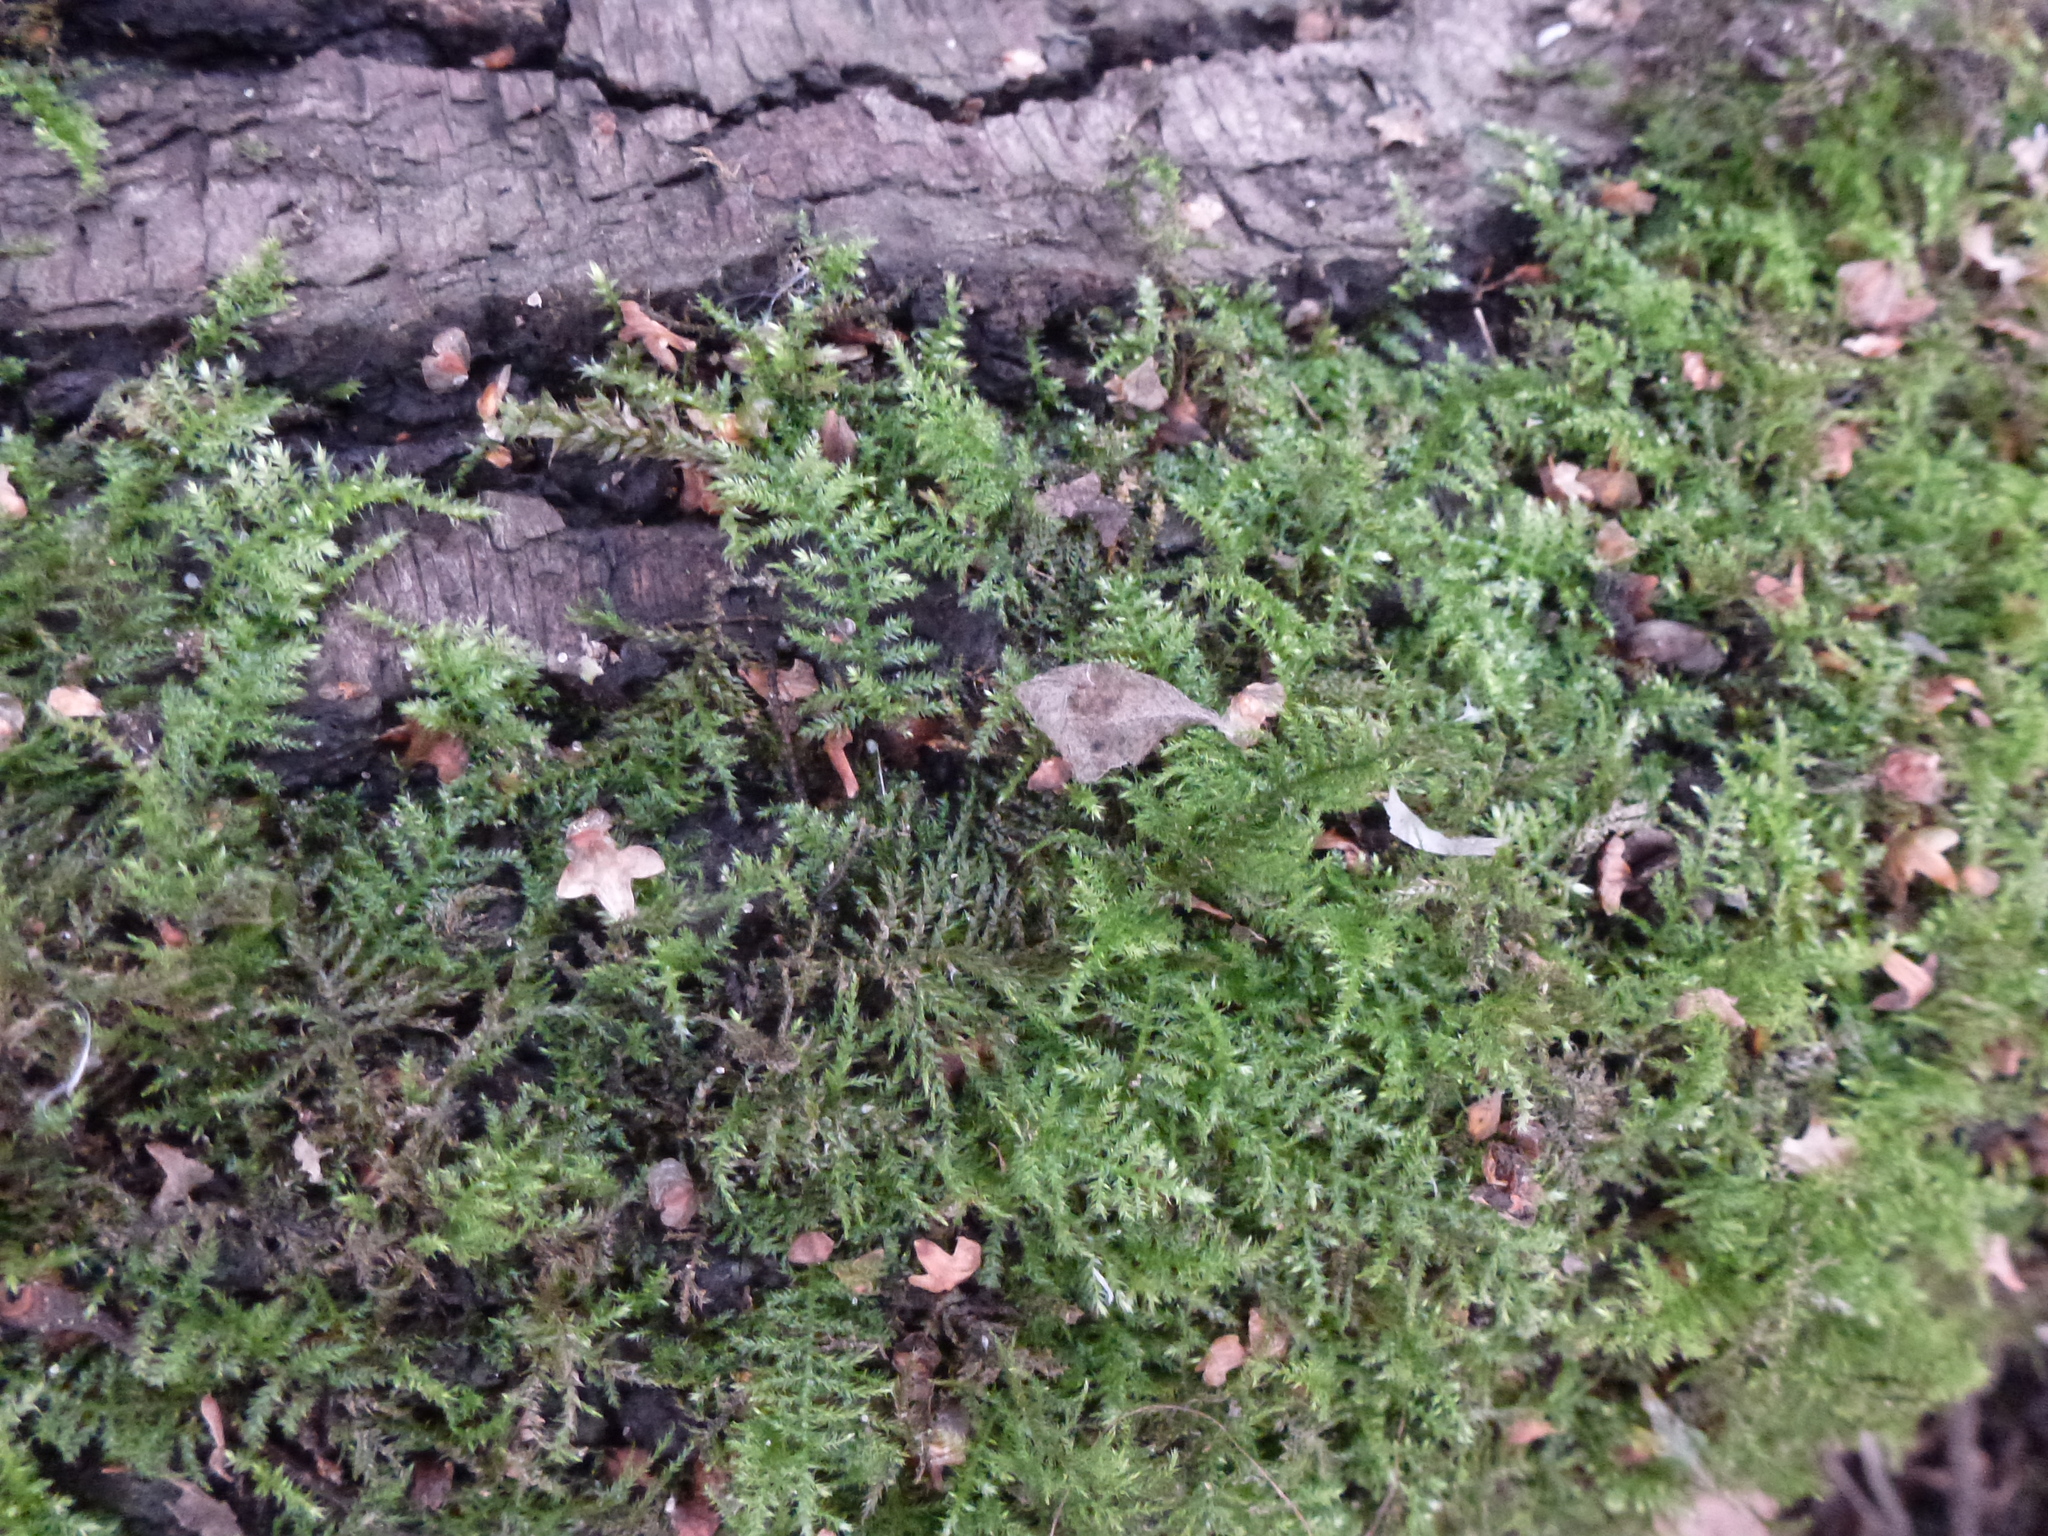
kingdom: Plantae
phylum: Bryophyta
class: Bryopsida
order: Hypnales
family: Brachytheciaceae
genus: Kindbergia
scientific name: Kindbergia praelonga
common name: Slender beaked moss
